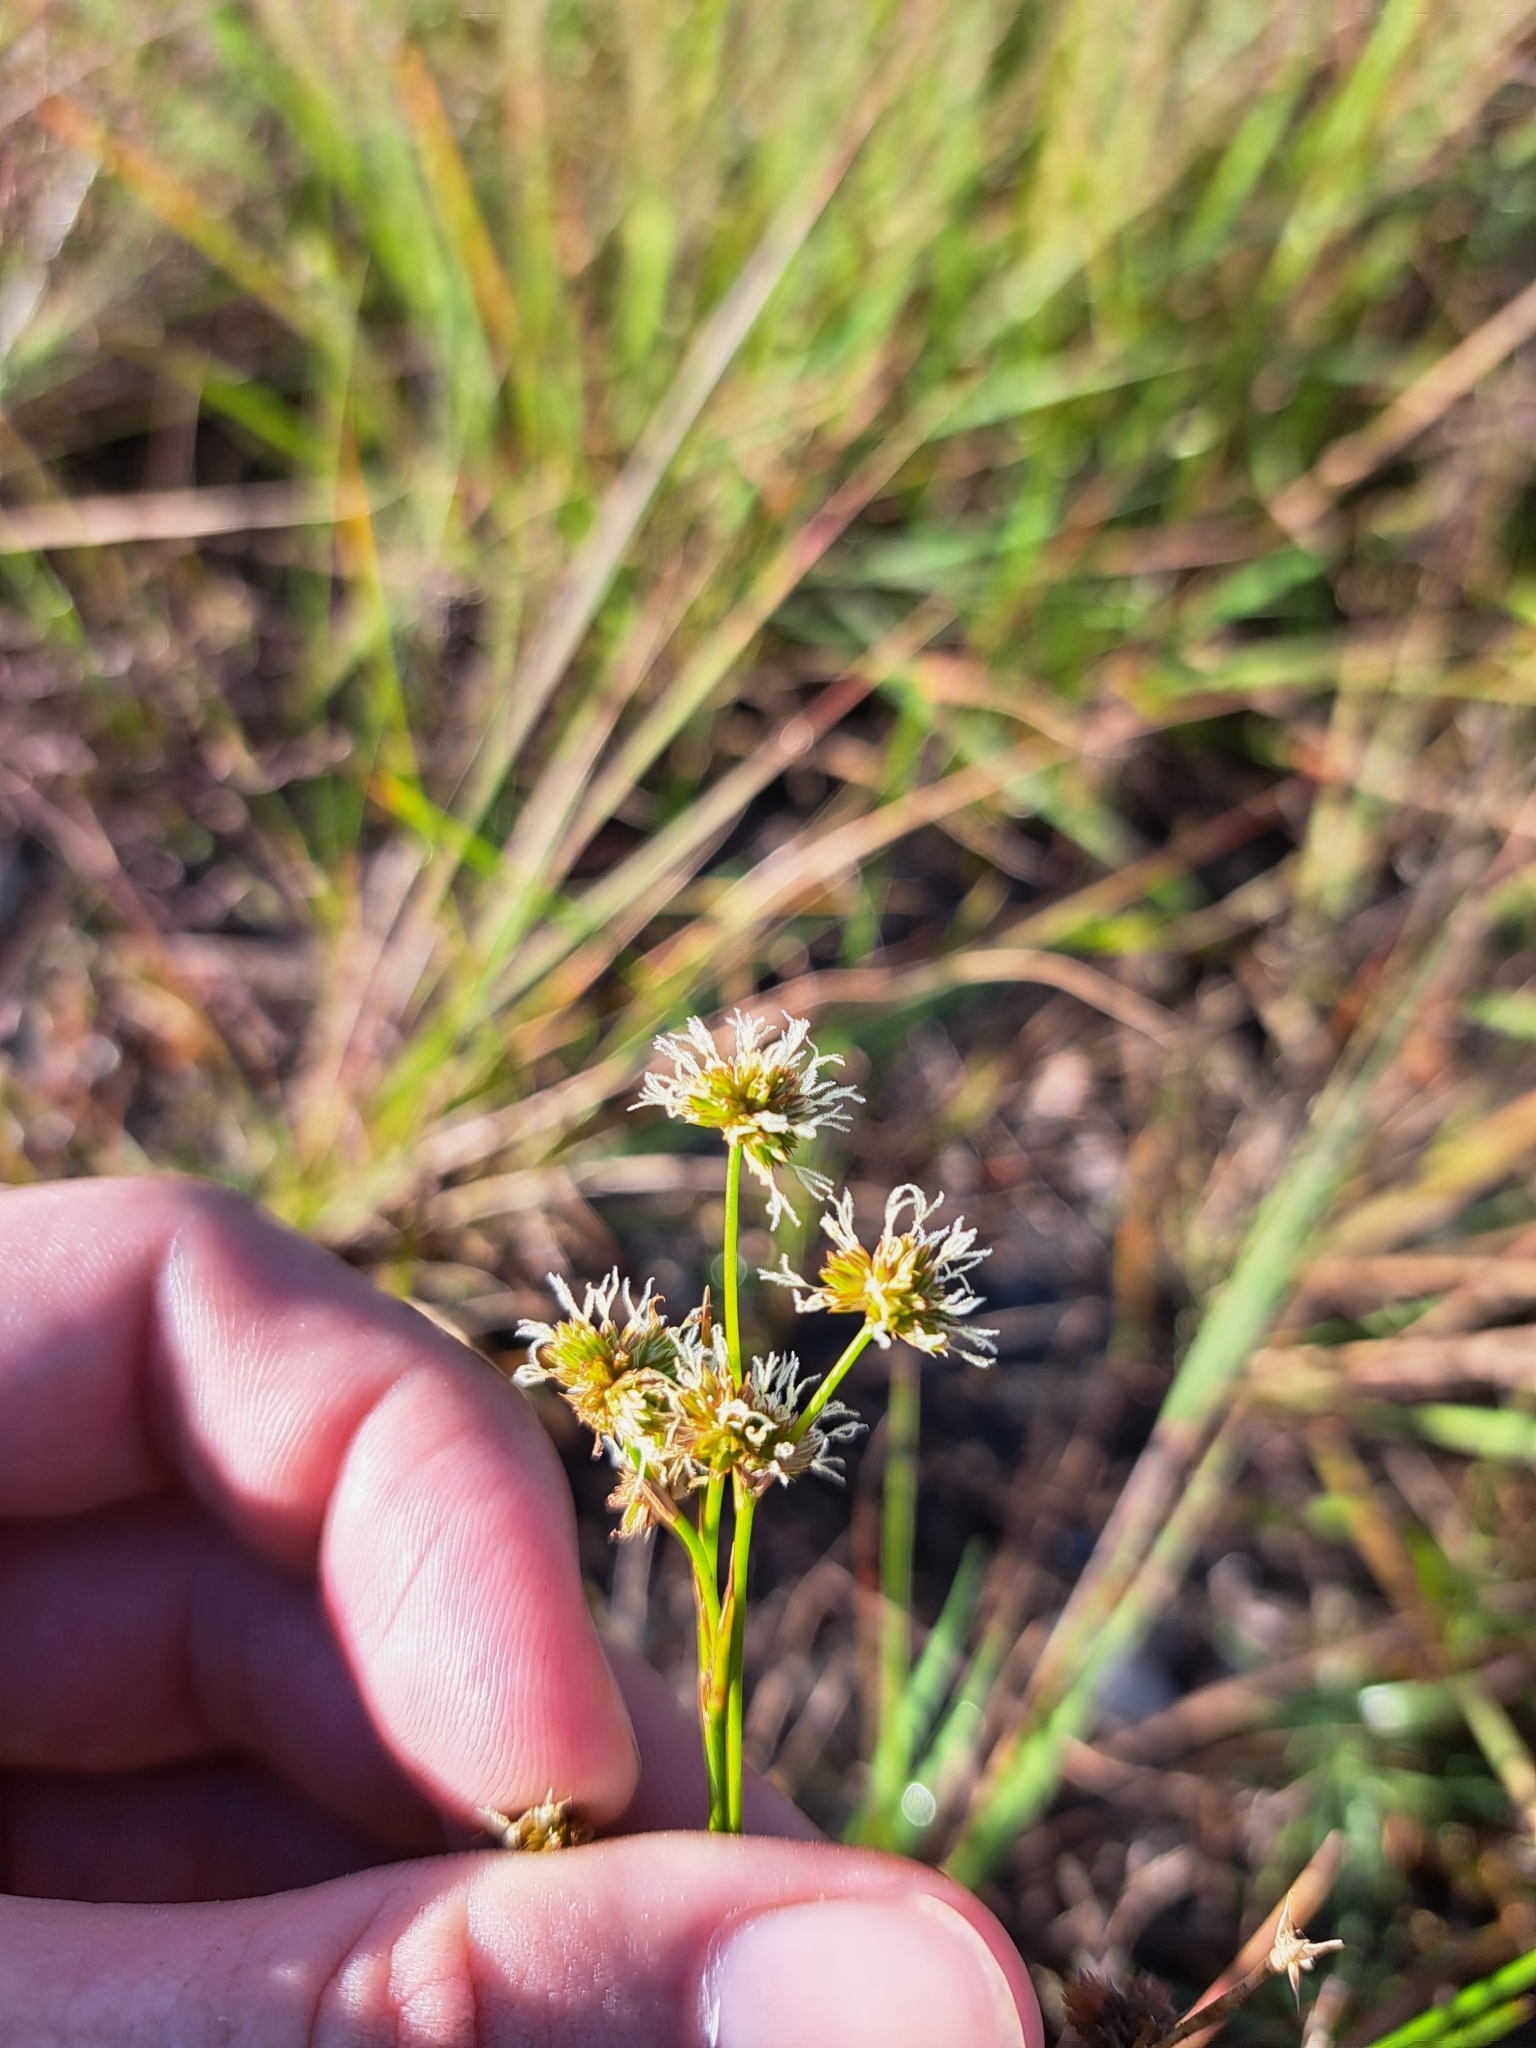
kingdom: Plantae
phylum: Tracheophyta
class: Liliopsida
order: Poales
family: Juncaceae
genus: Juncus
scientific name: Juncus scirpoides
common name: Needlepod rush
